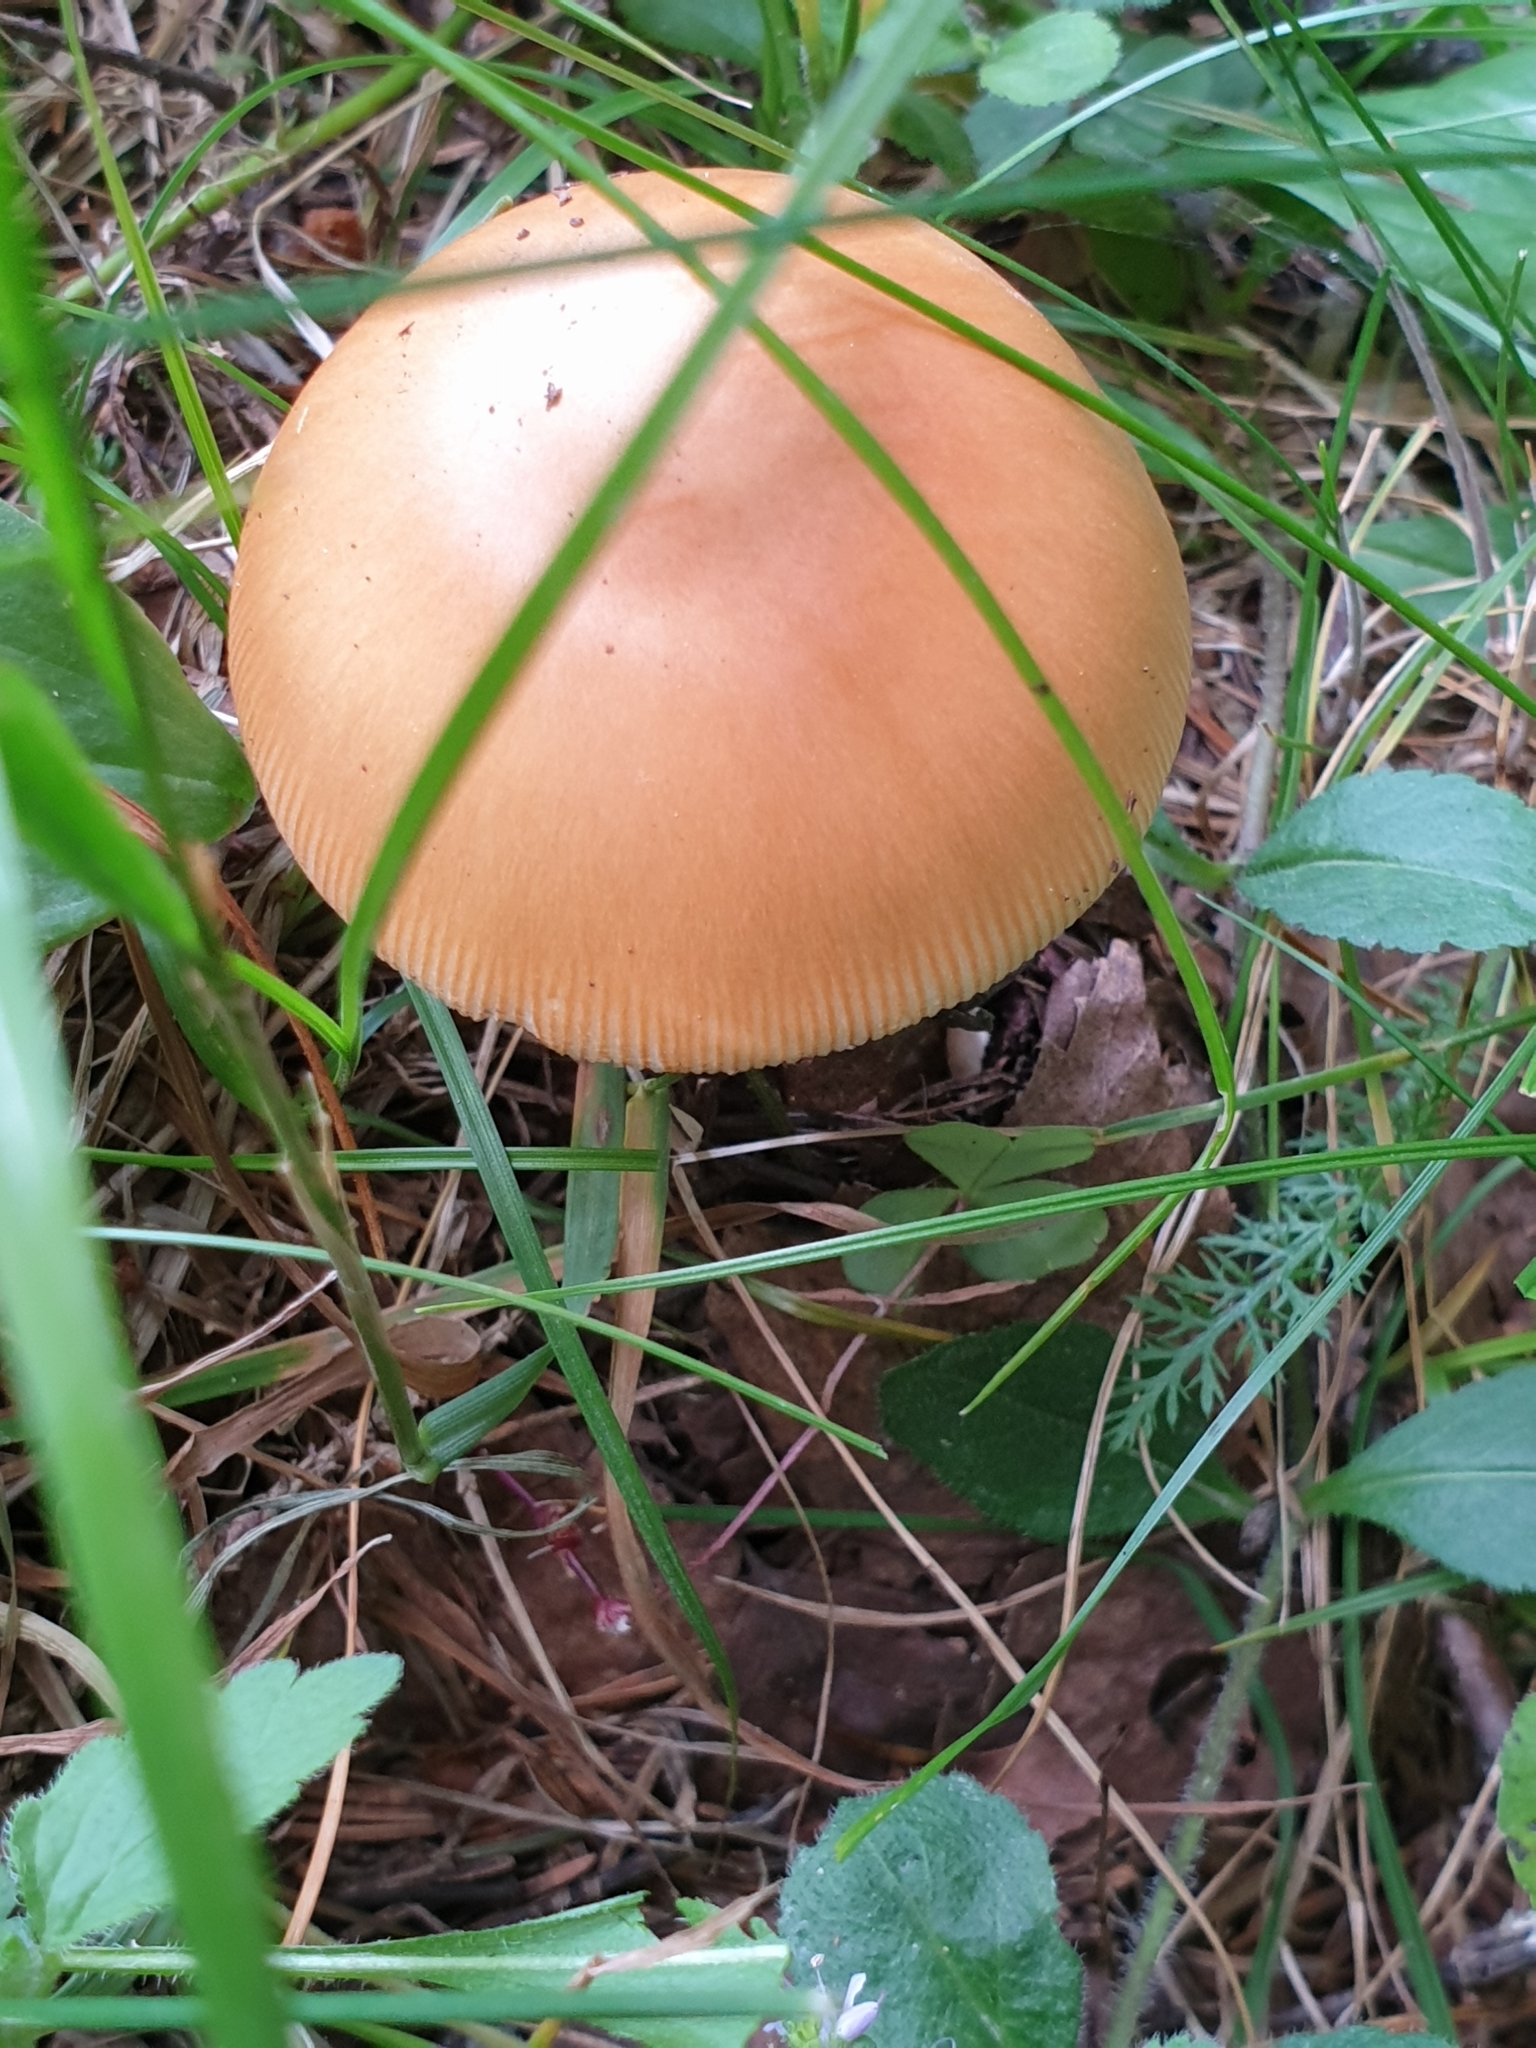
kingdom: Fungi
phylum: Basidiomycota
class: Agaricomycetes
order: Agaricales
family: Amanitaceae
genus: Amanita
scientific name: Amanita subnudipes
